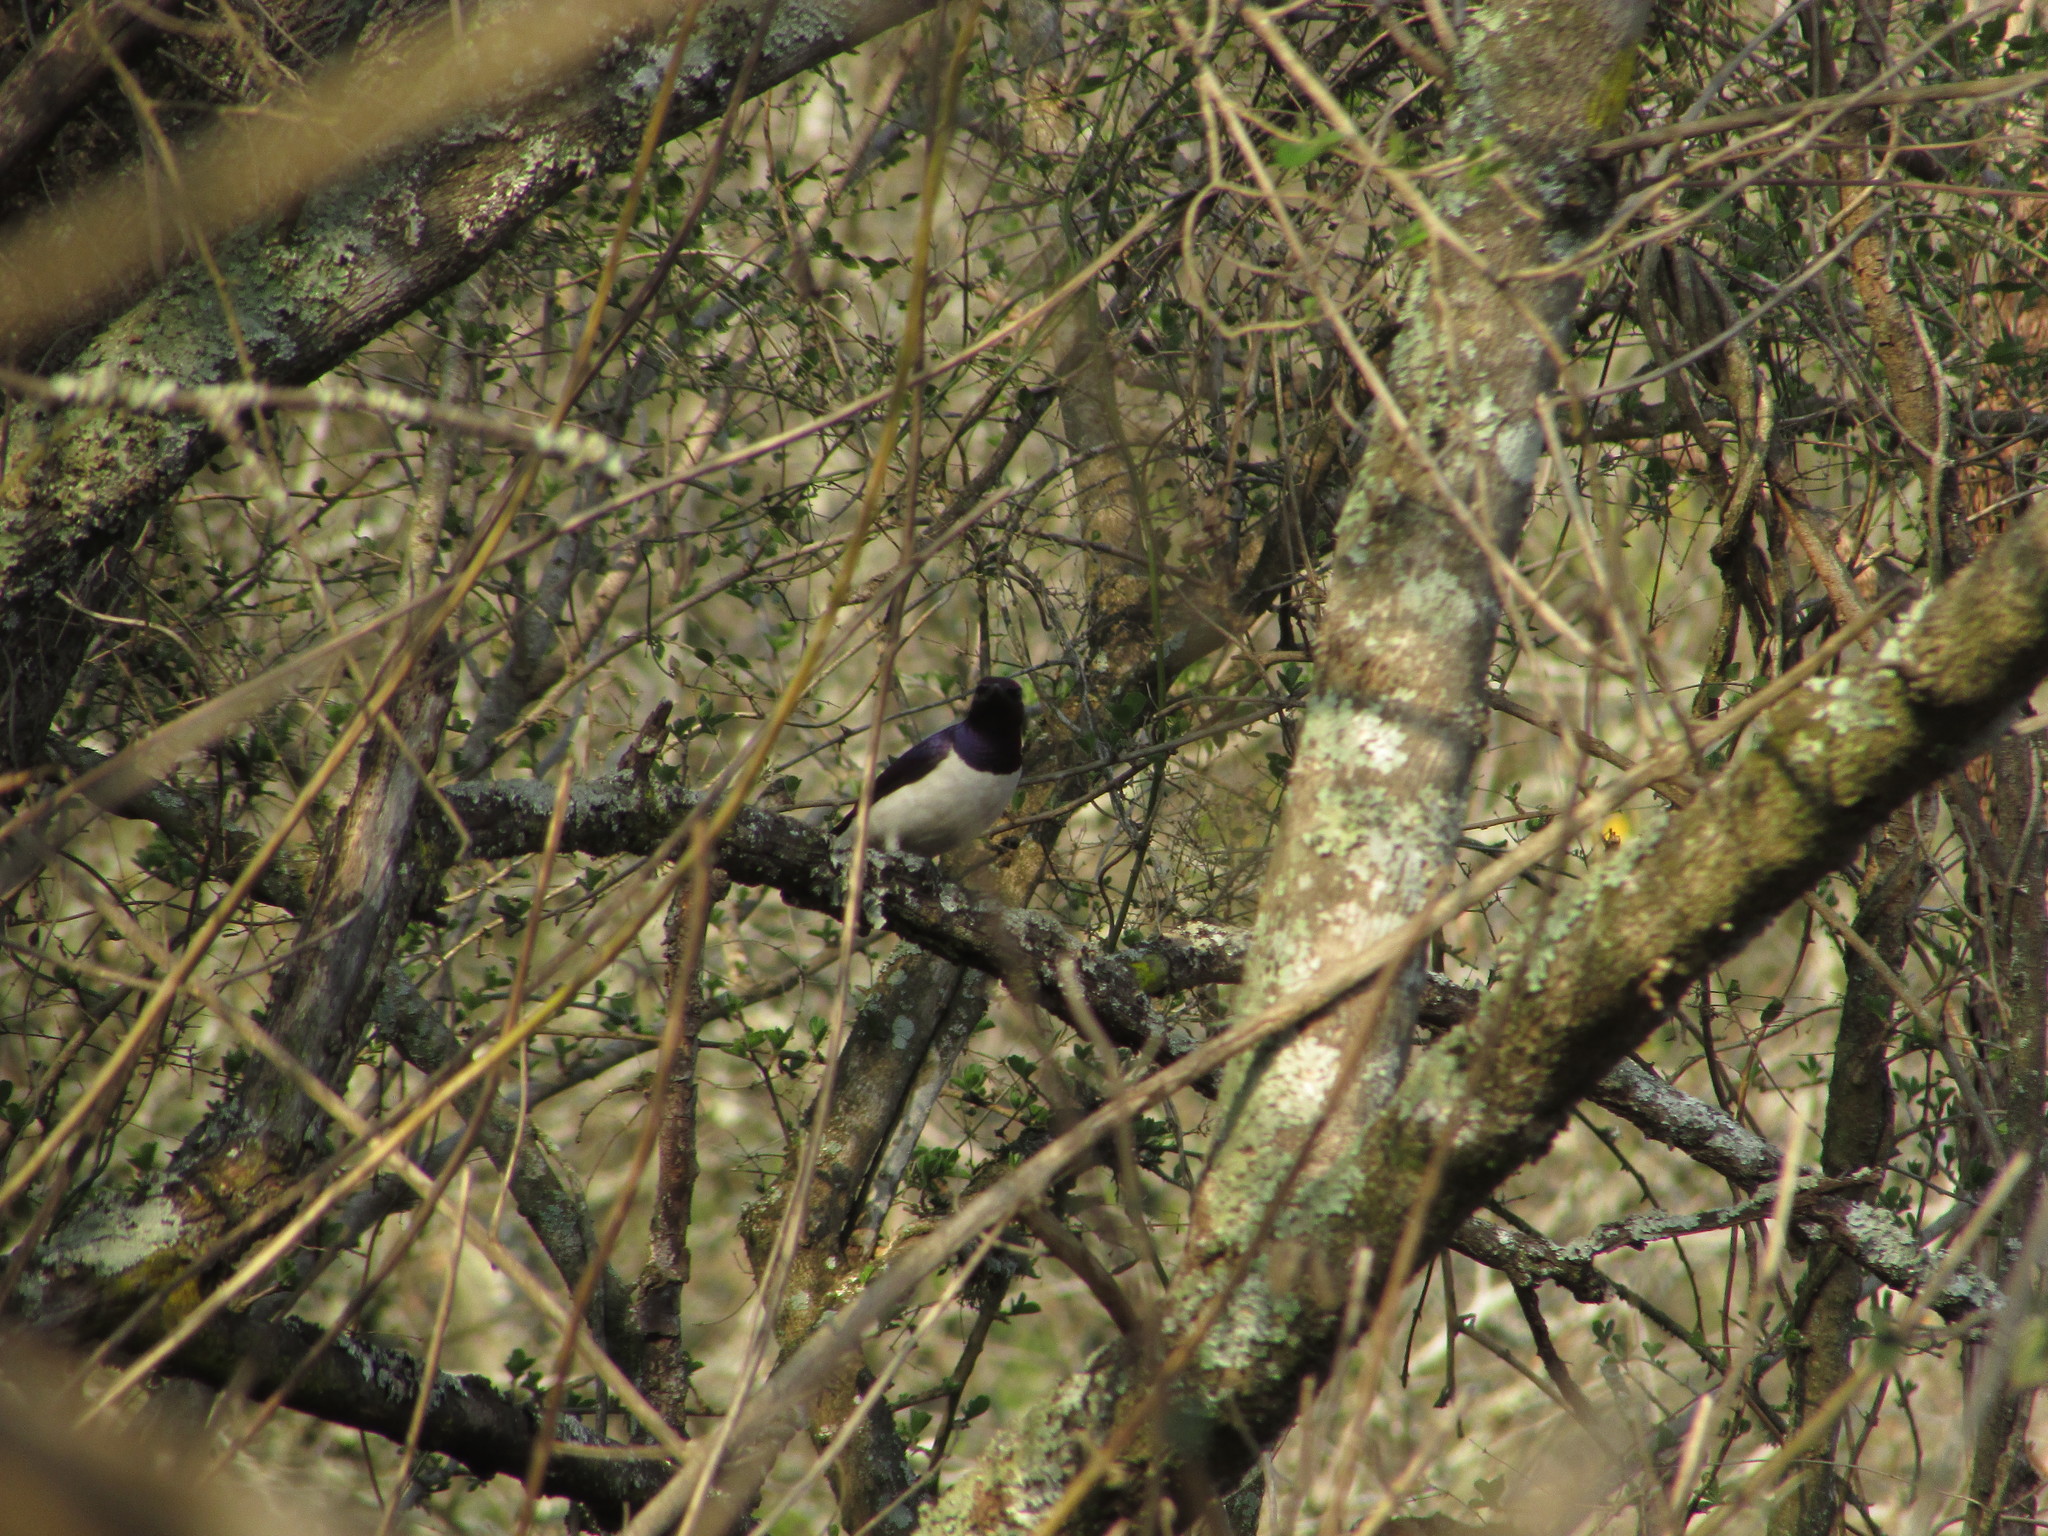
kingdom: Animalia
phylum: Chordata
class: Aves
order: Passeriformes
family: Sturnidae
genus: Cinnyricinclus
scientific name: Cinnyricinclus leucogaster
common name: Violet-backed starling
